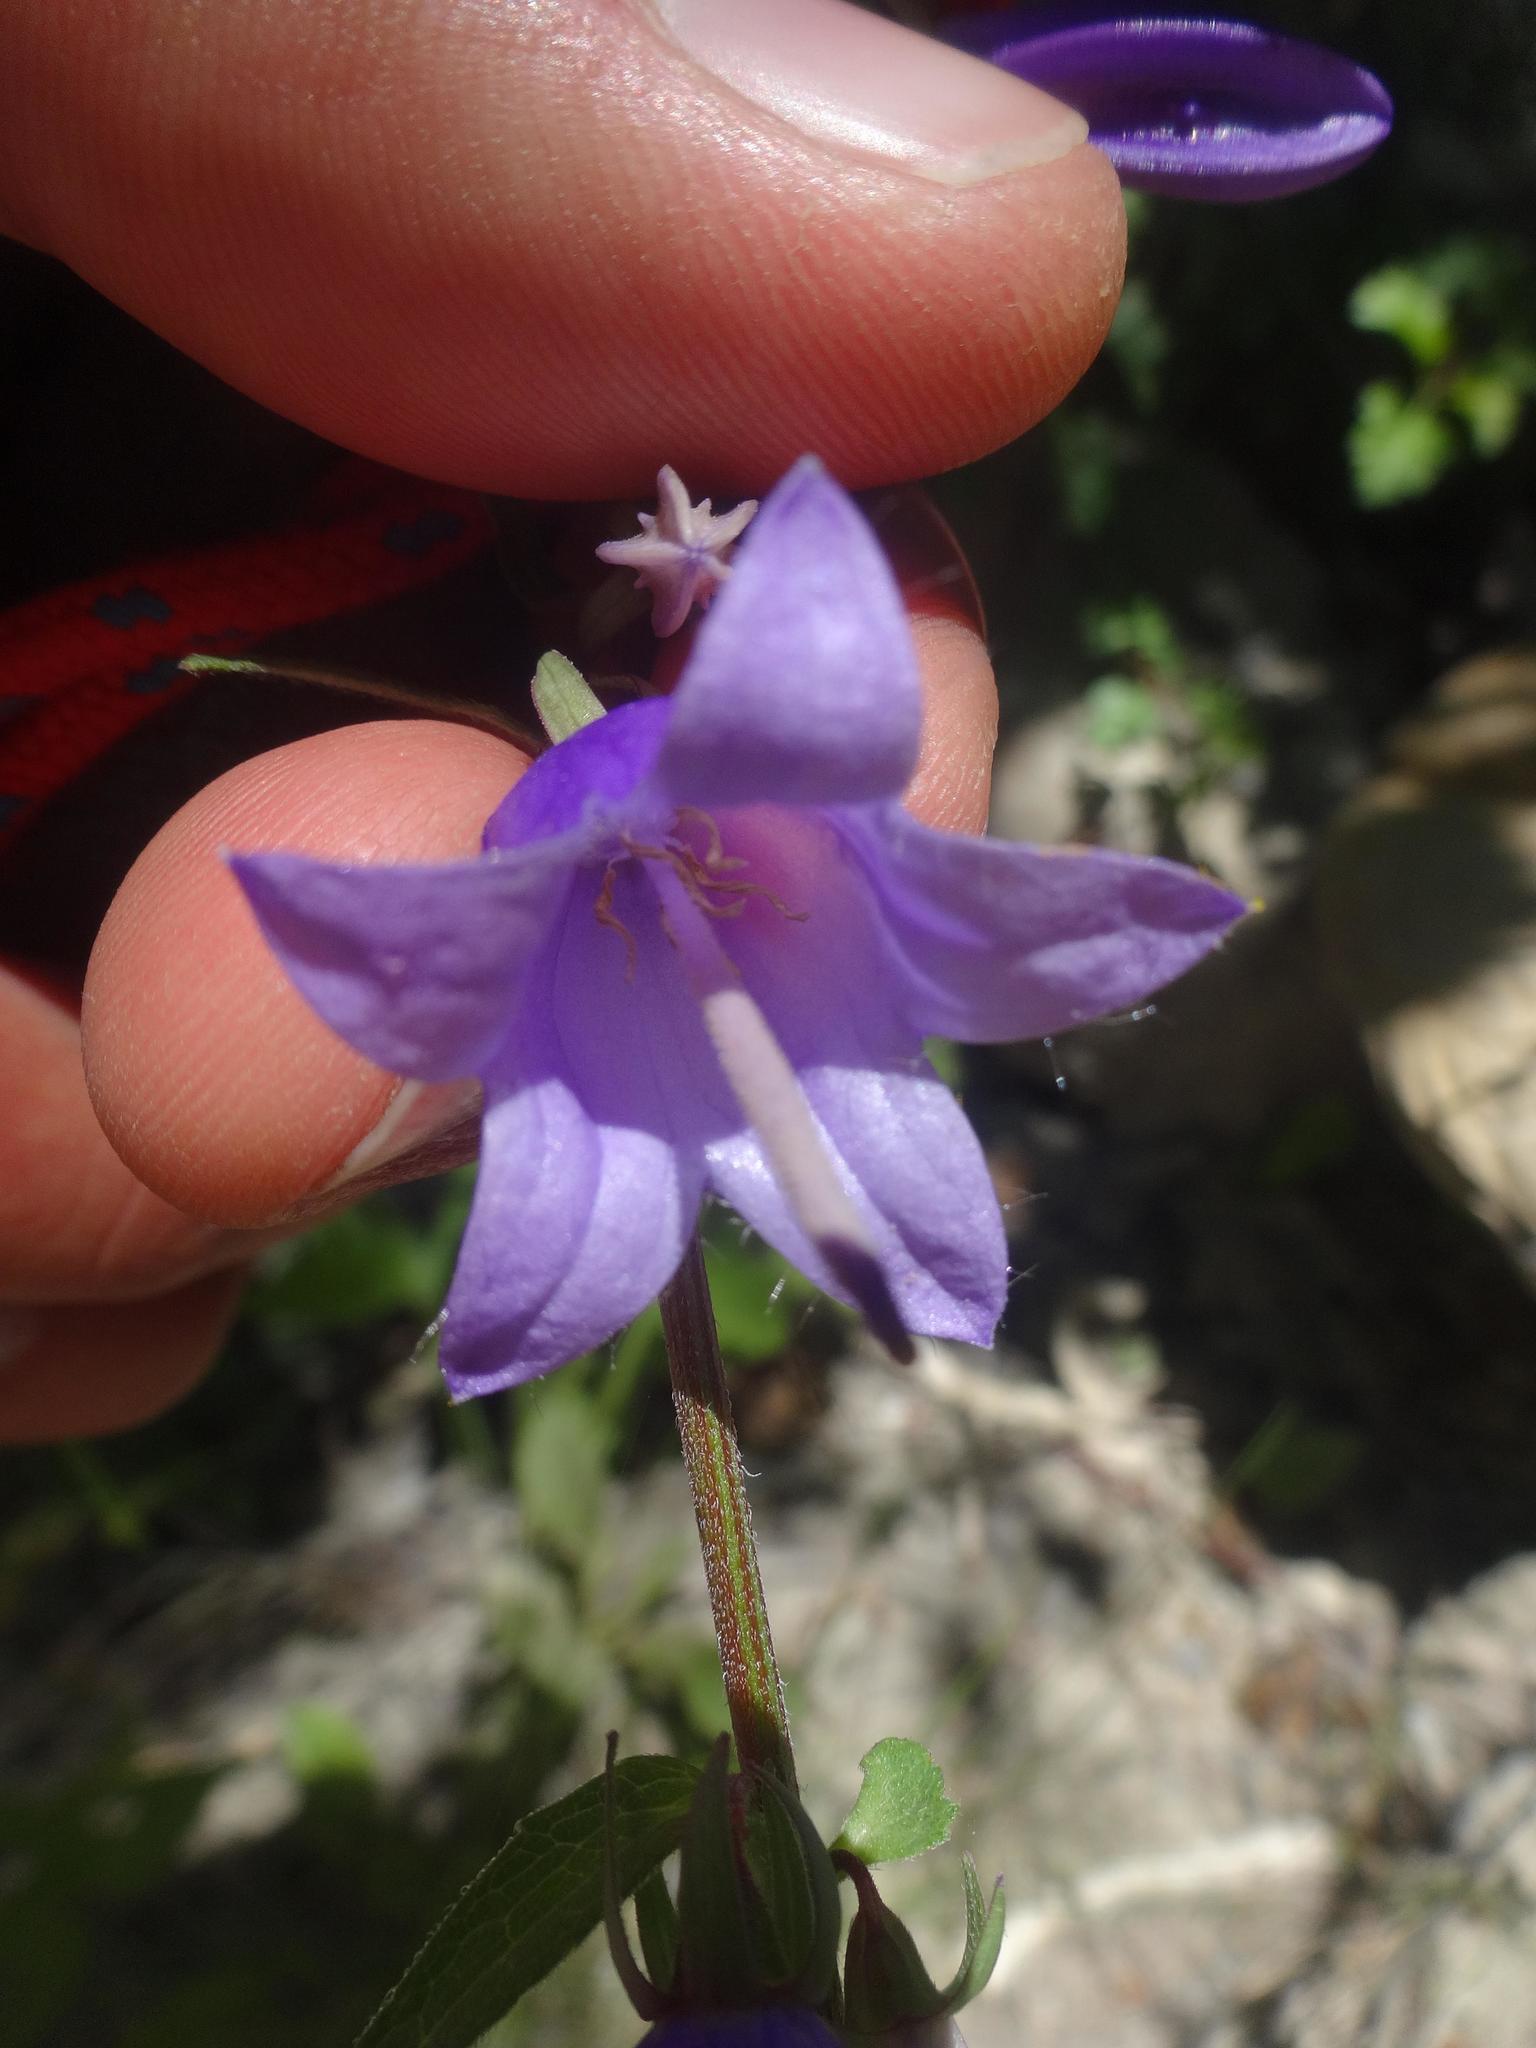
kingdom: Plantae
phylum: Tracheophyta
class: Magnoliopsida
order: Asterales
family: Campanulaceae
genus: Campanula
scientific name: Campanula rapunculoides
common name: Creeping bellflower
